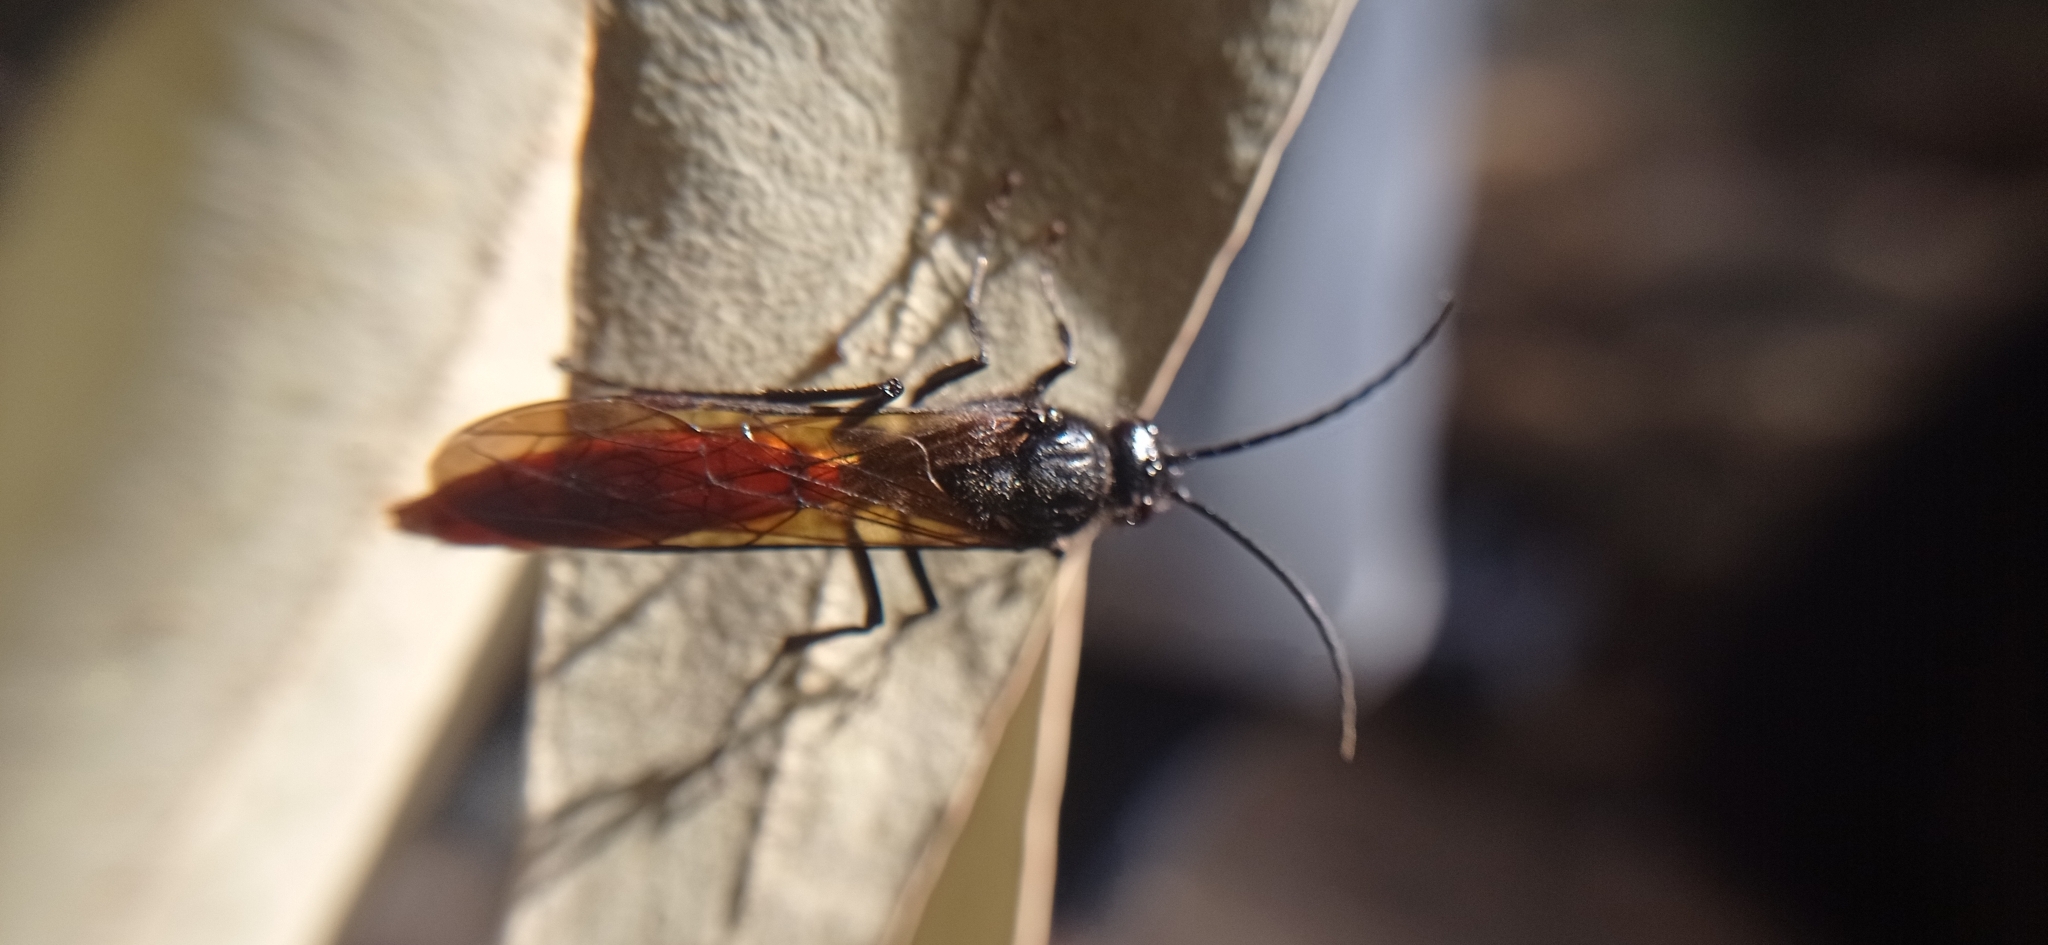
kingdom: Animalia
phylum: Arthropoda
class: Insecta
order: Hymenoptera
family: Tiphiidae
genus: Elaphroptera
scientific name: Elaphroptera
